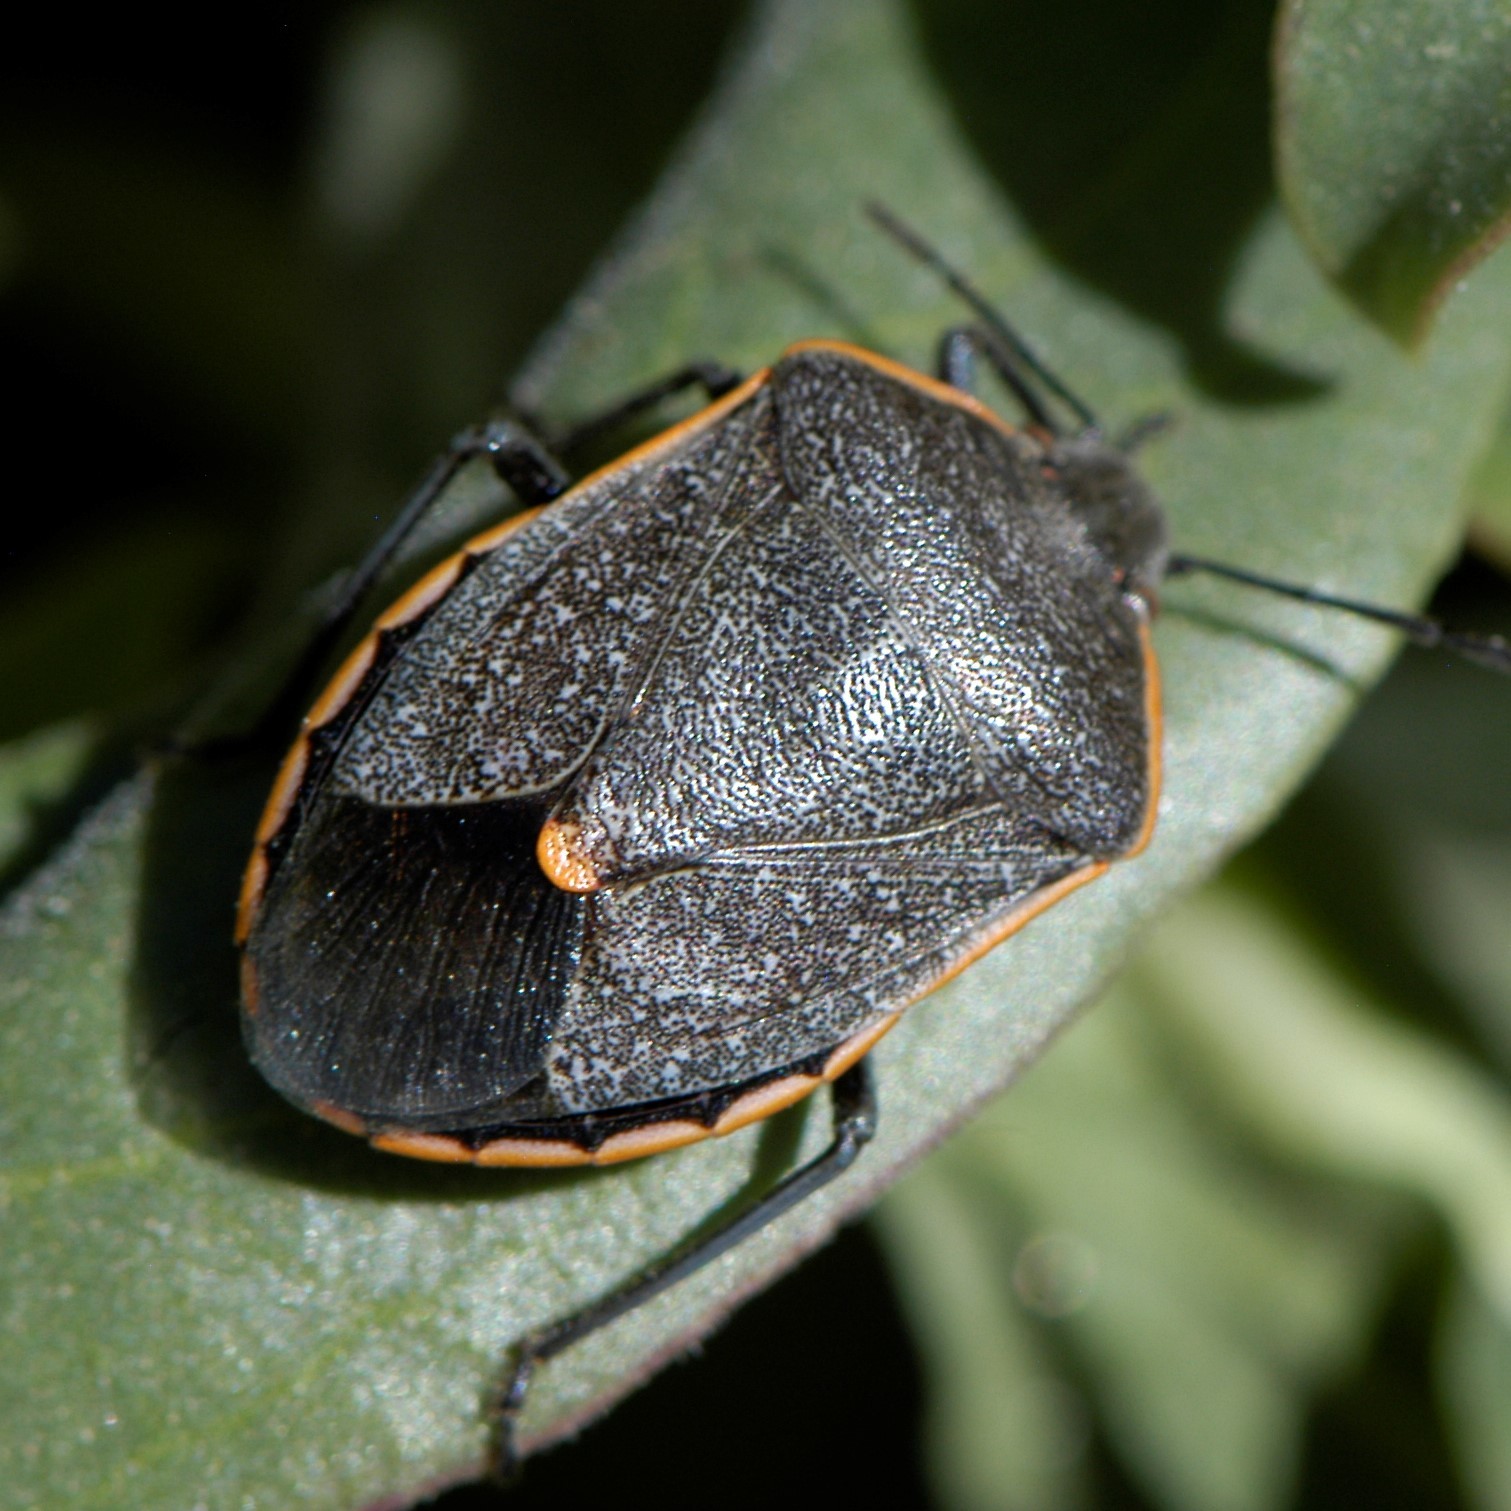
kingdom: Animalia
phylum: Arthropoda
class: Insecta
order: Hemiptera
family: Pentatomidae
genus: Chlorochroa
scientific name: Chlorochroa ligata
